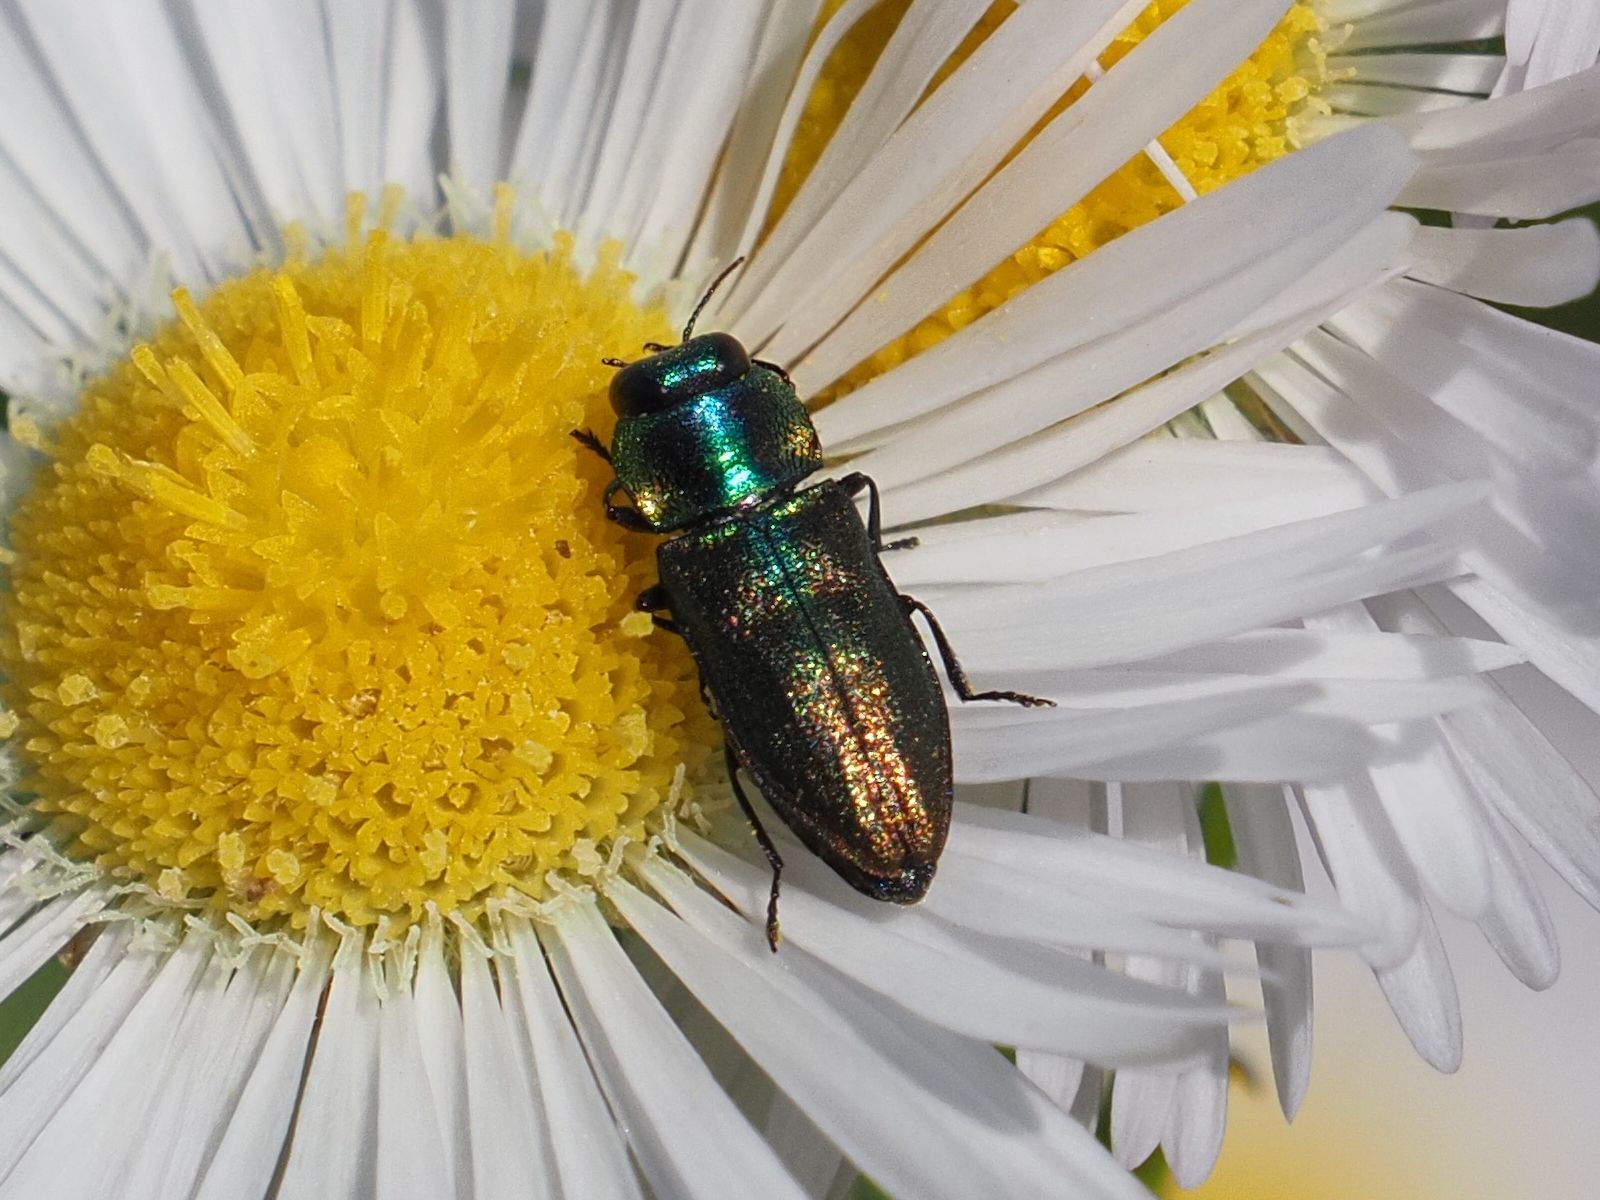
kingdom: Animalia
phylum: Arthropoda
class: Insecta
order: Coleoptera
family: Buprestidae
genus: Anthaxia
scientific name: Anthaxia podolica
